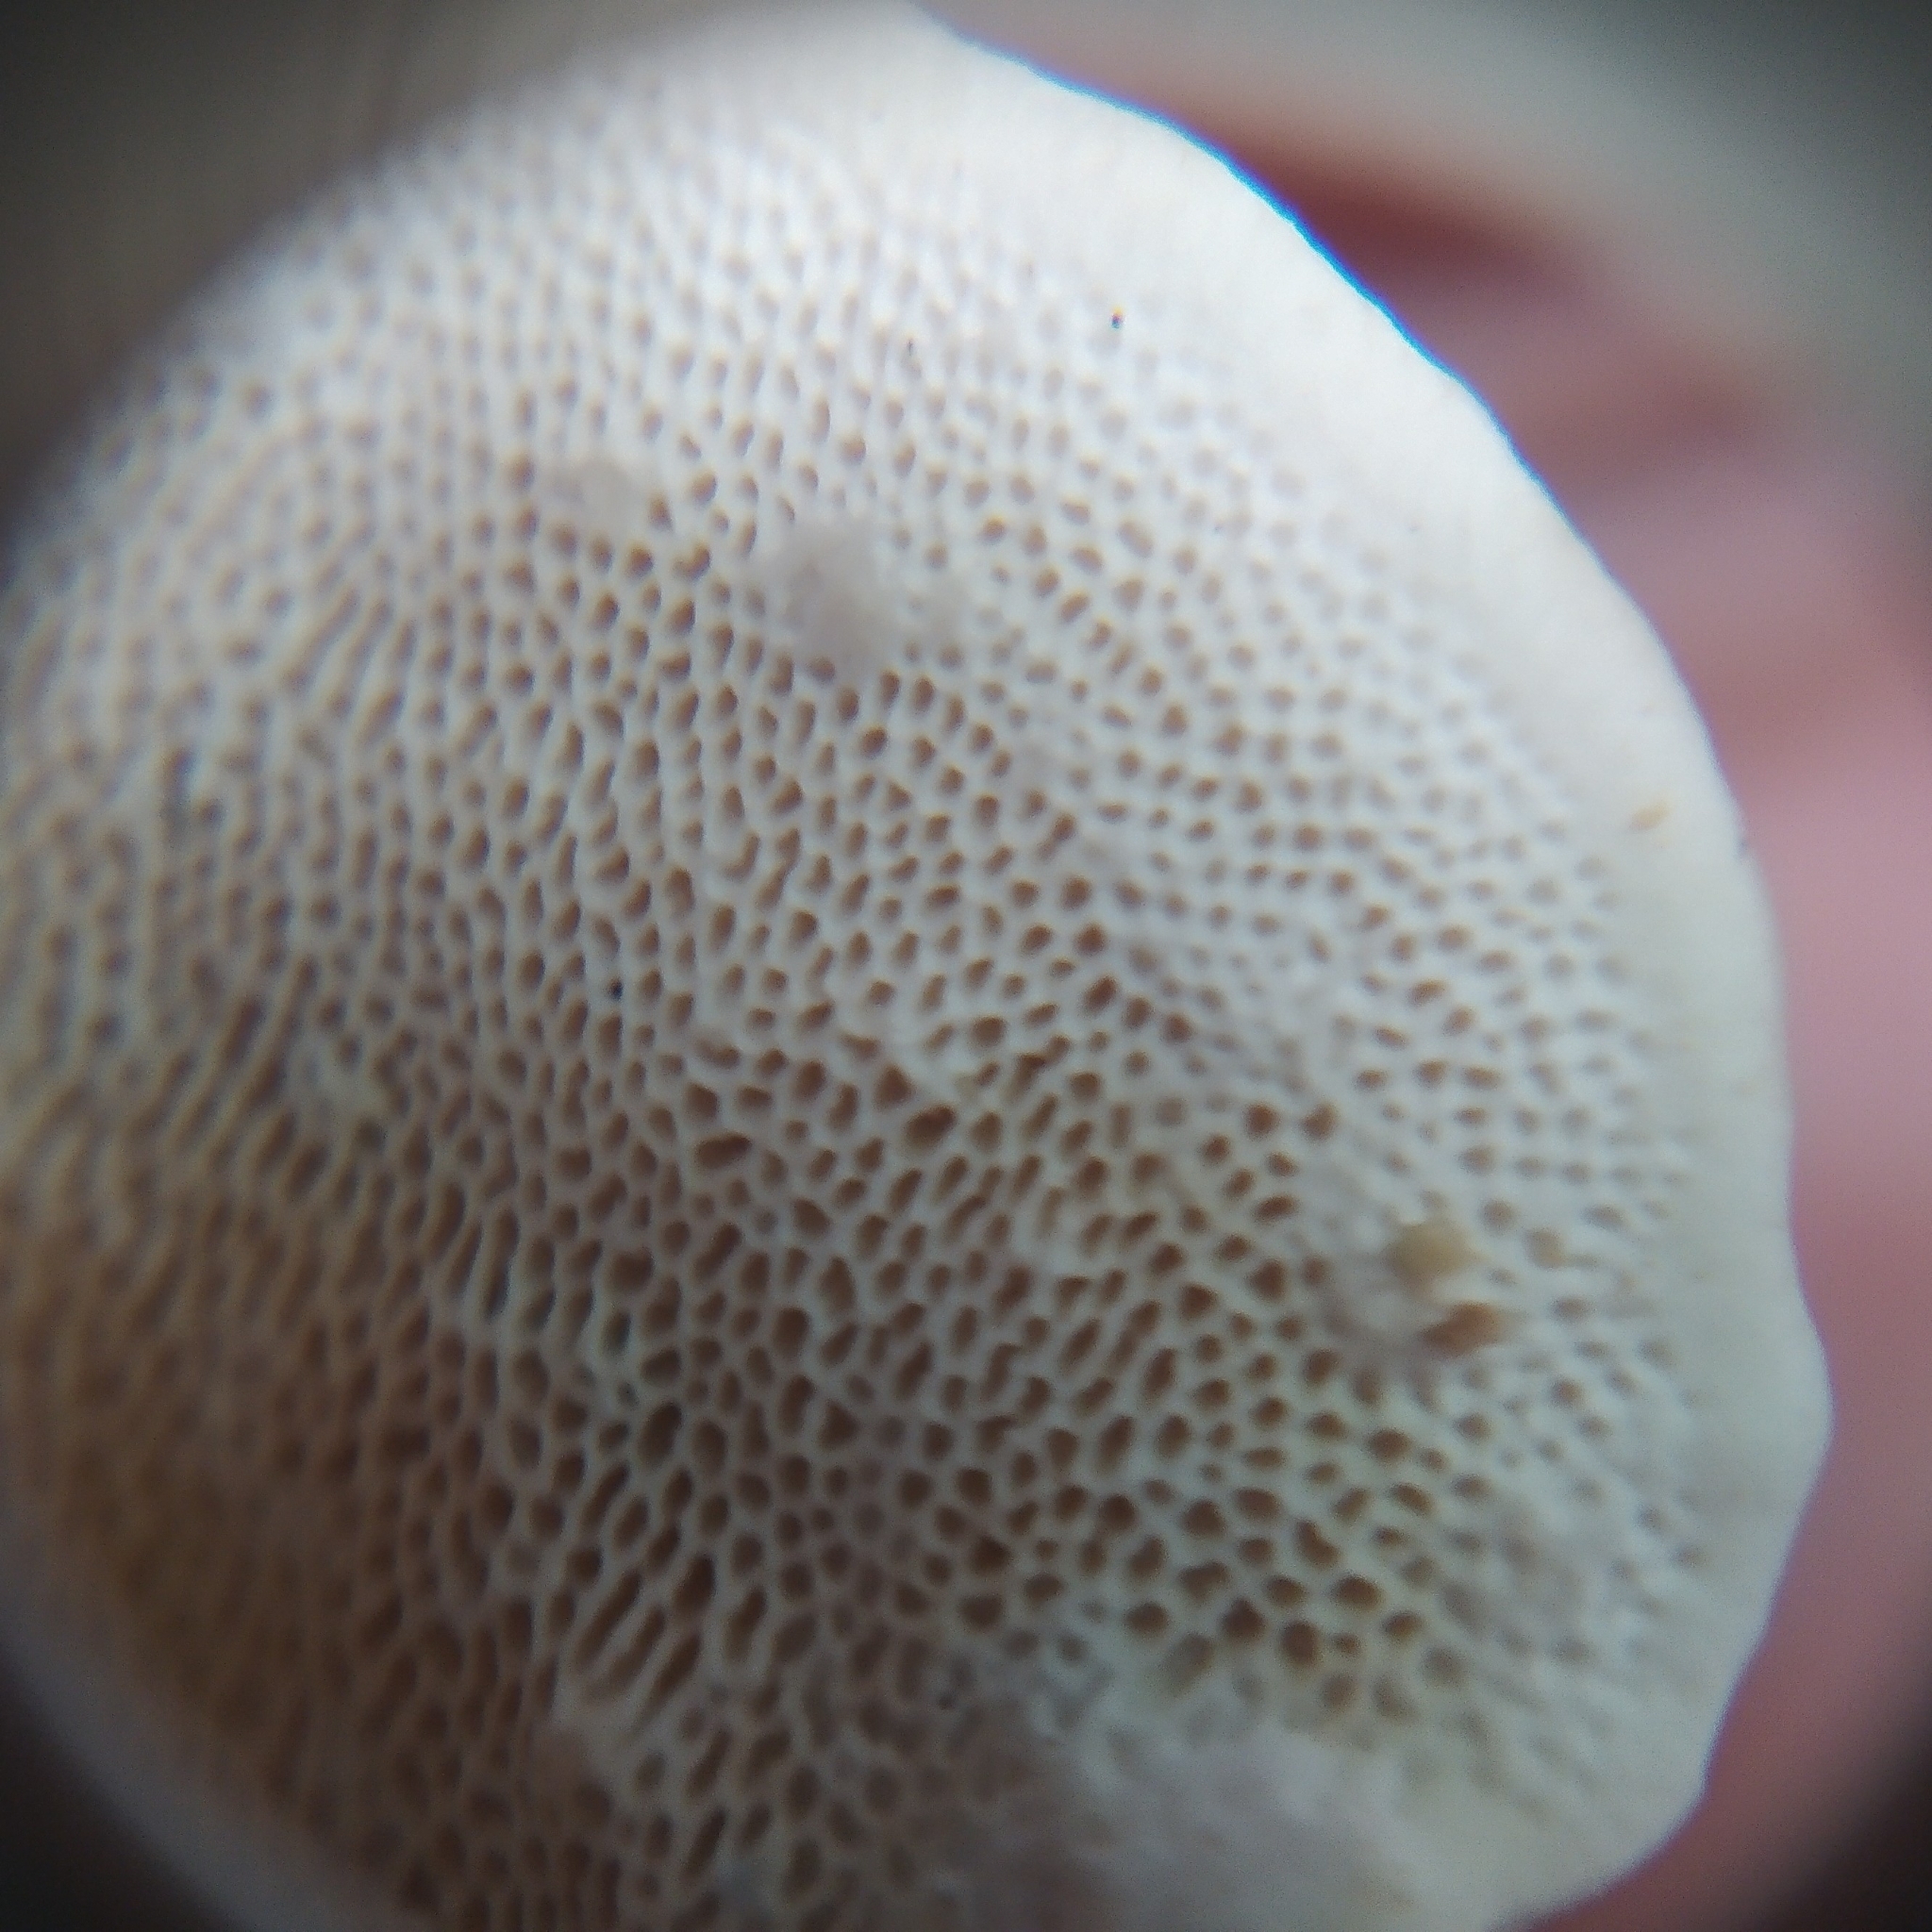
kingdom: Fungi
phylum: Basidiomycota
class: Agaricomycetes
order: Polyporales
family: Polyporaceae
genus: Pseudofavolus
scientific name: Pseudofavolus tenuis
